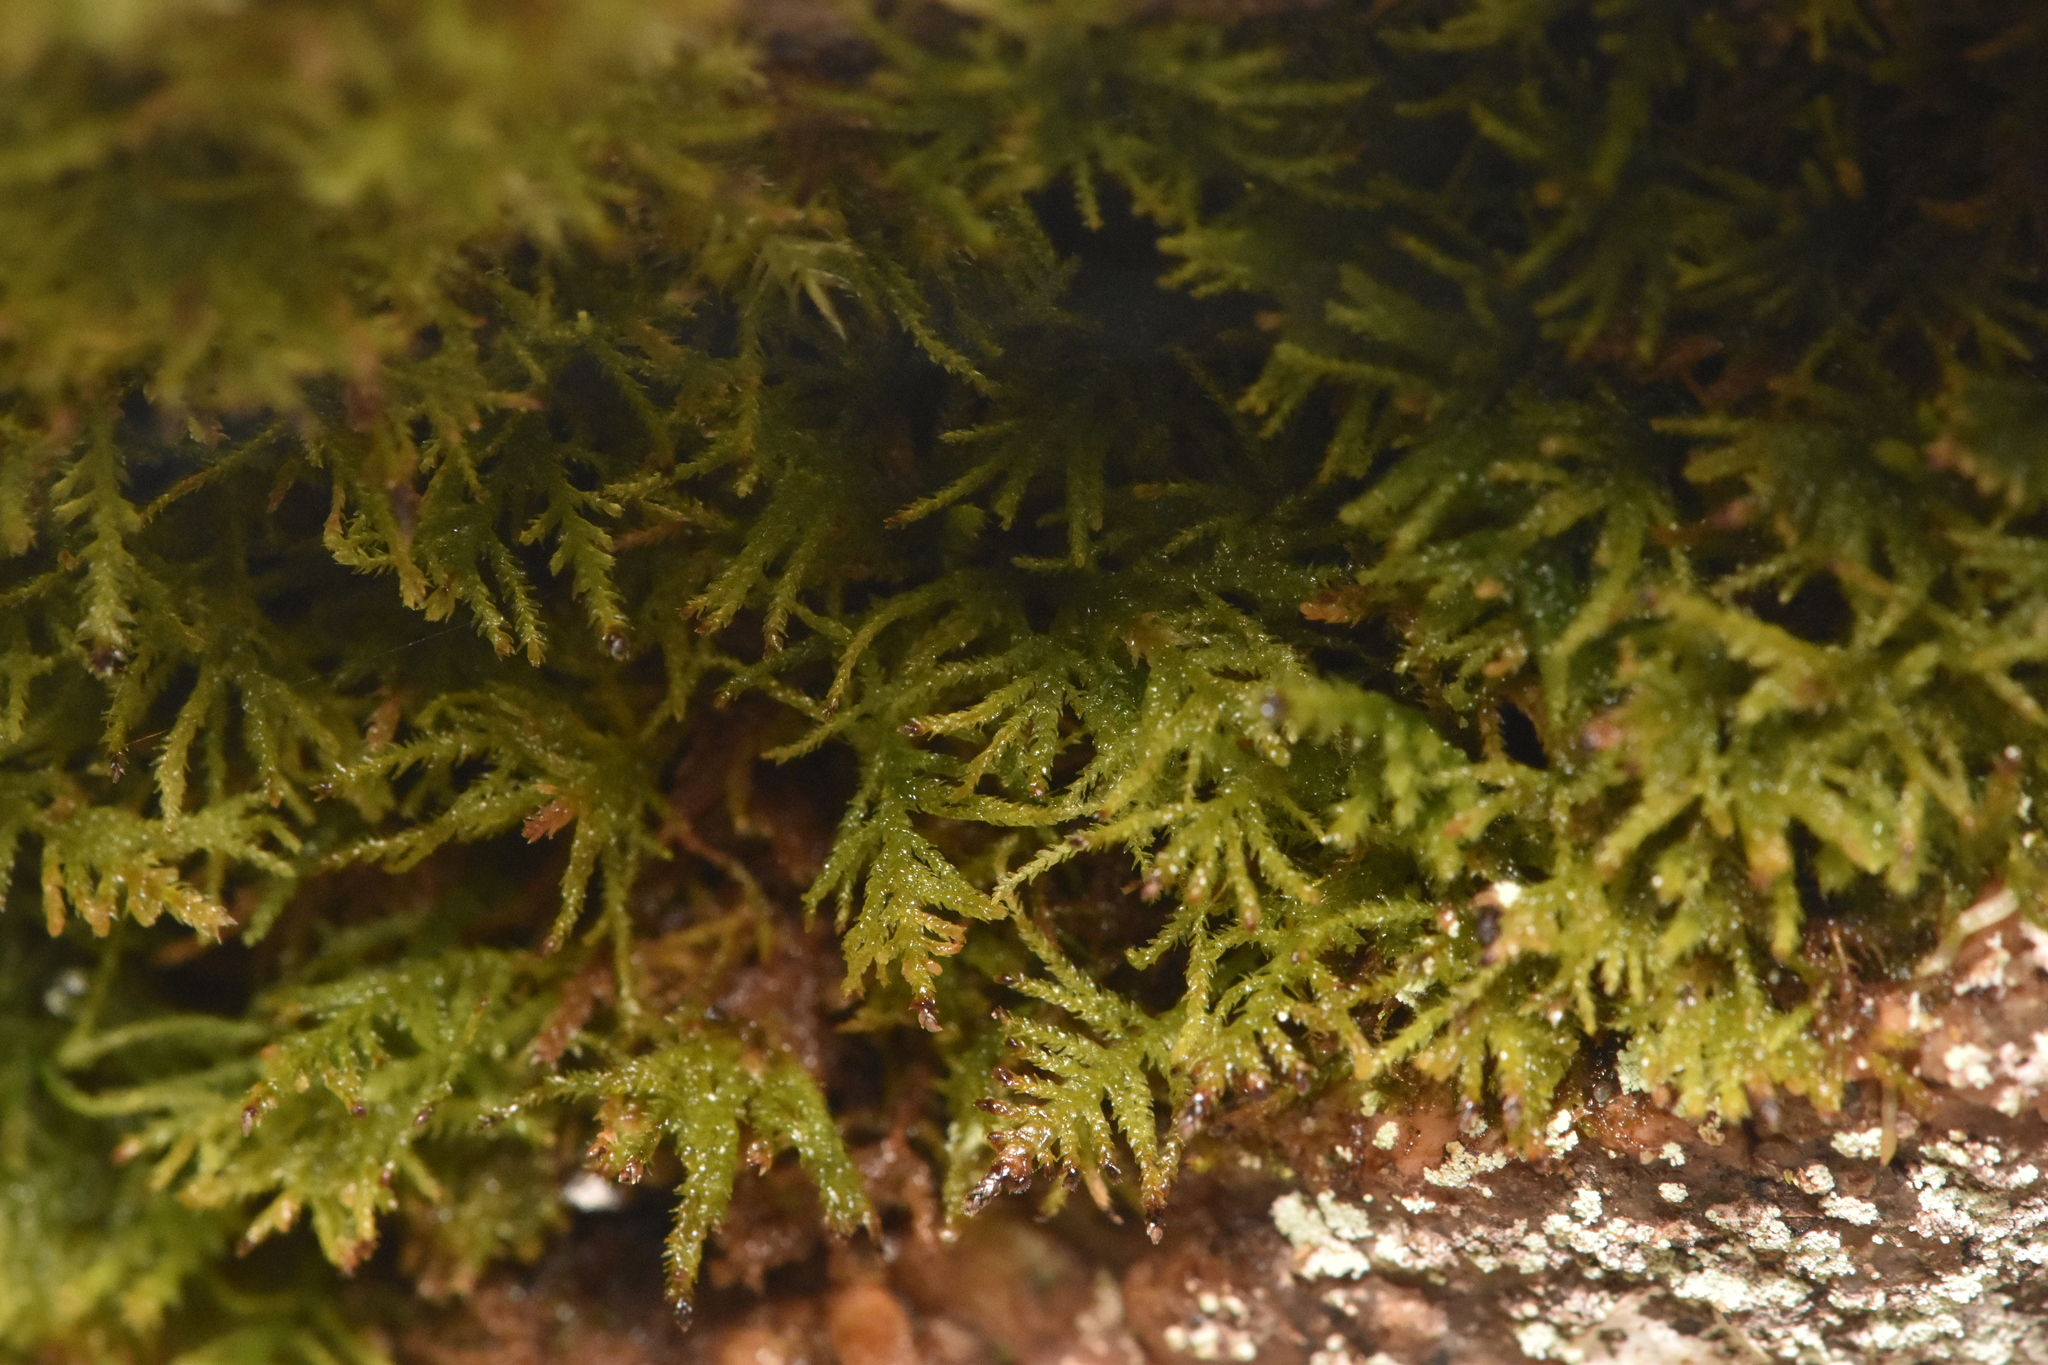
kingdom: Plantae
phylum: Bryophyta
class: Bryopsida
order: Hypnales
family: Lembophyllaceae
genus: Heterocladium
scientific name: Heterocladium macounii
